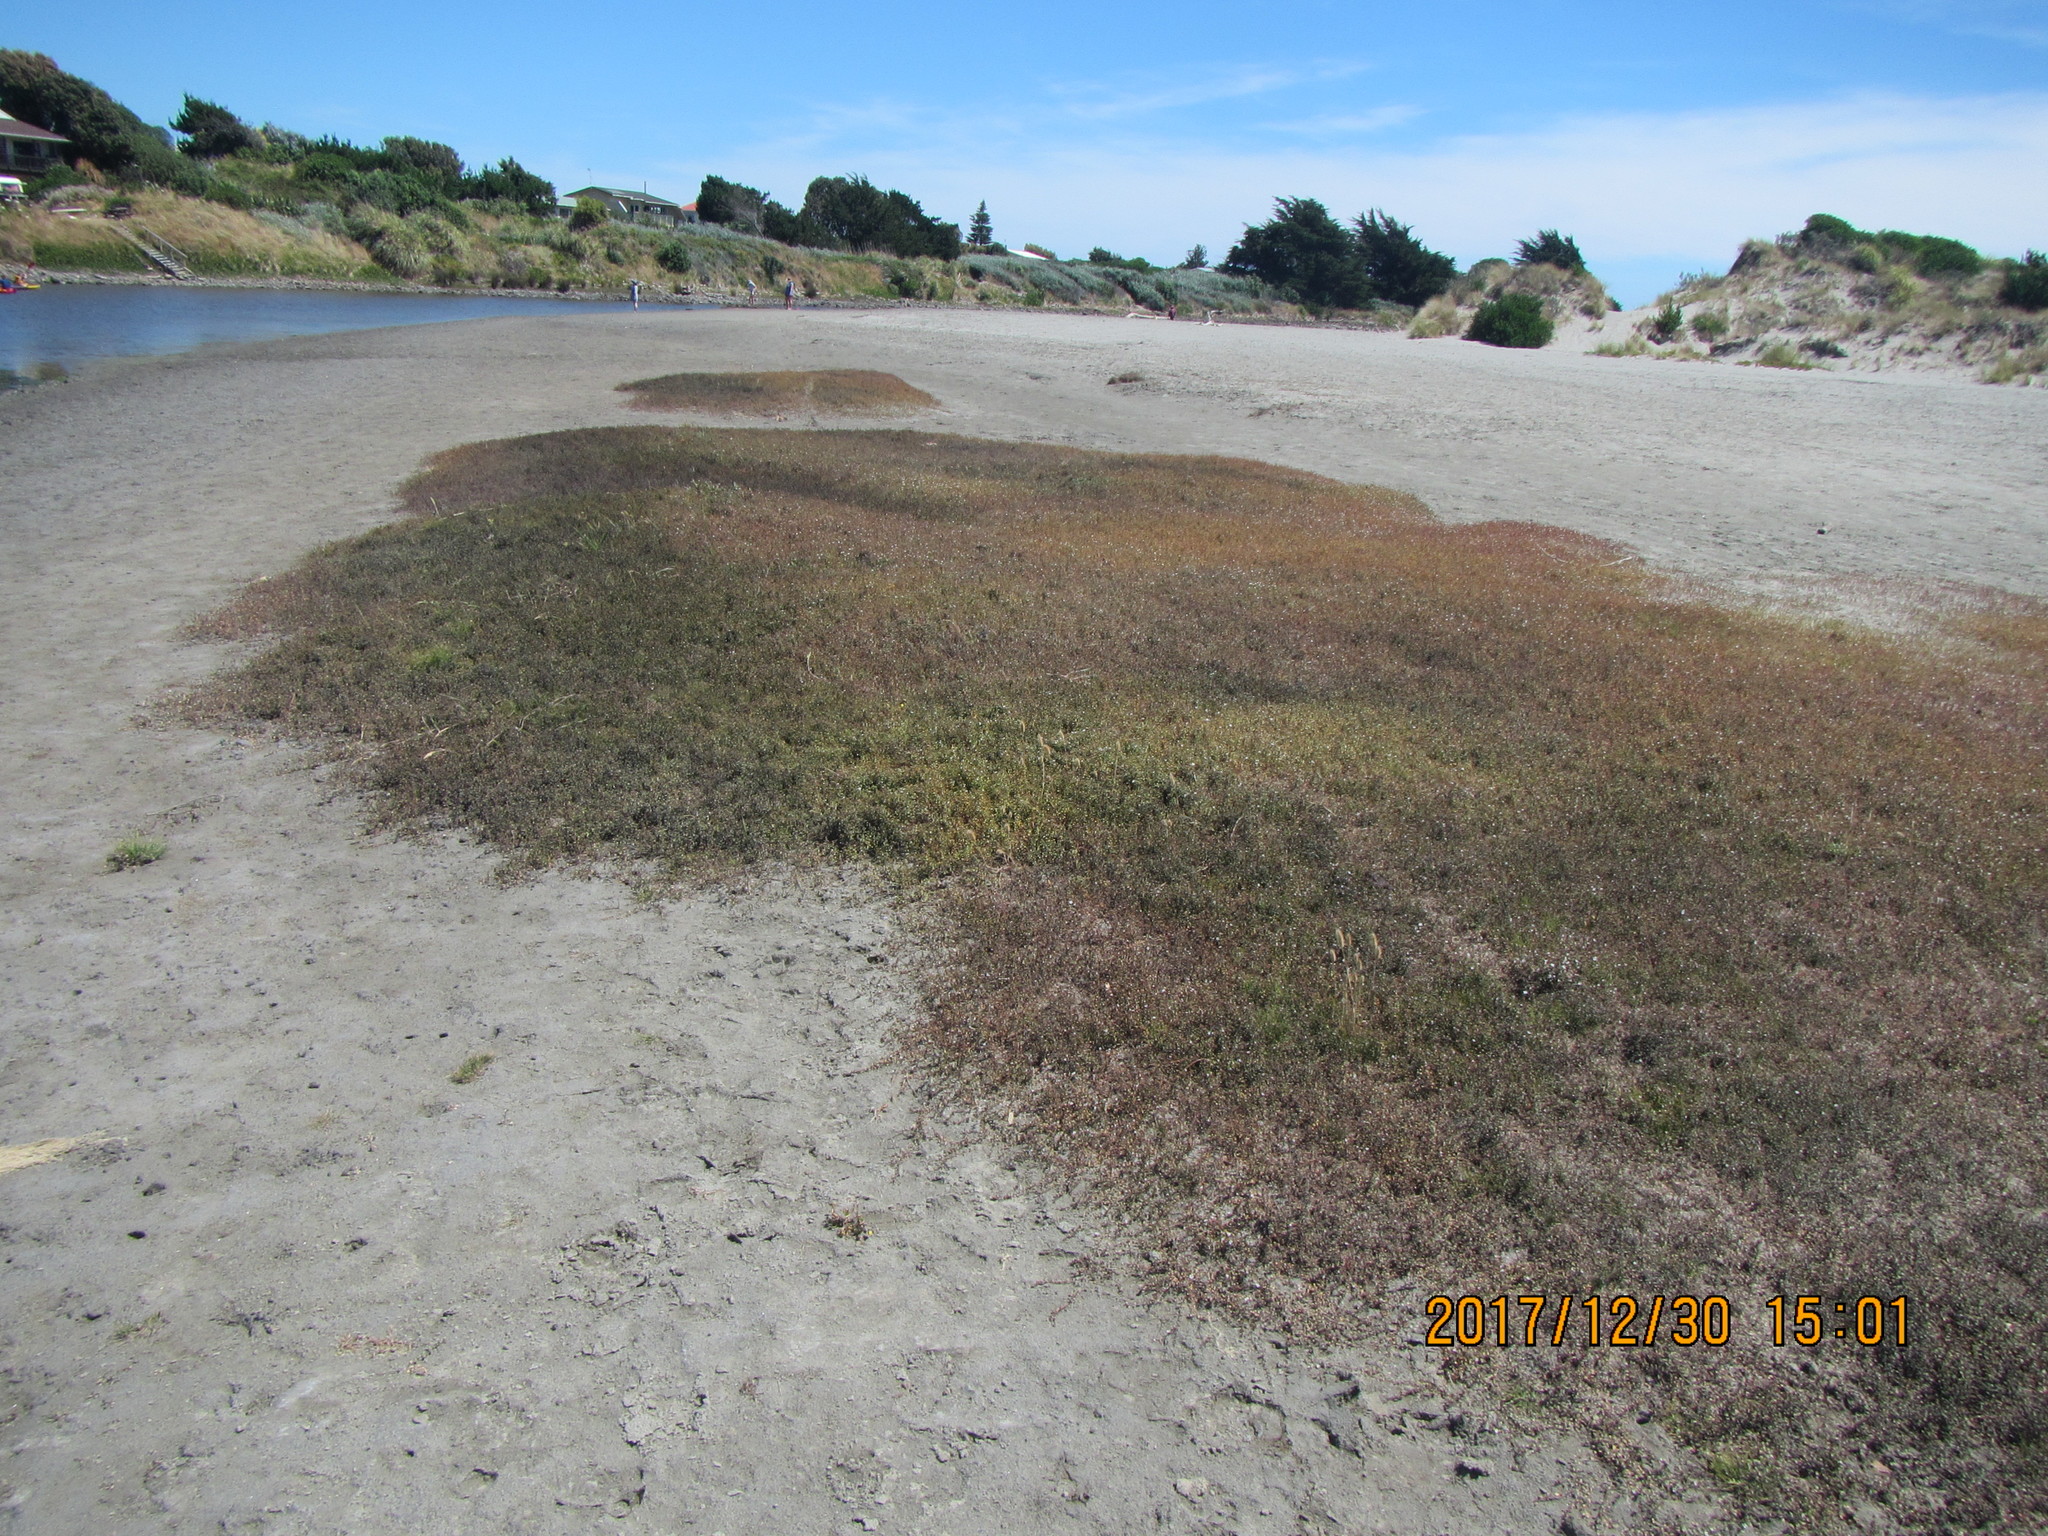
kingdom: Plantae
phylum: Tracheophyta
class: Magnoliopsida
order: Ericales
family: Primulaceae
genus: Samolus
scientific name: Samolus repens
